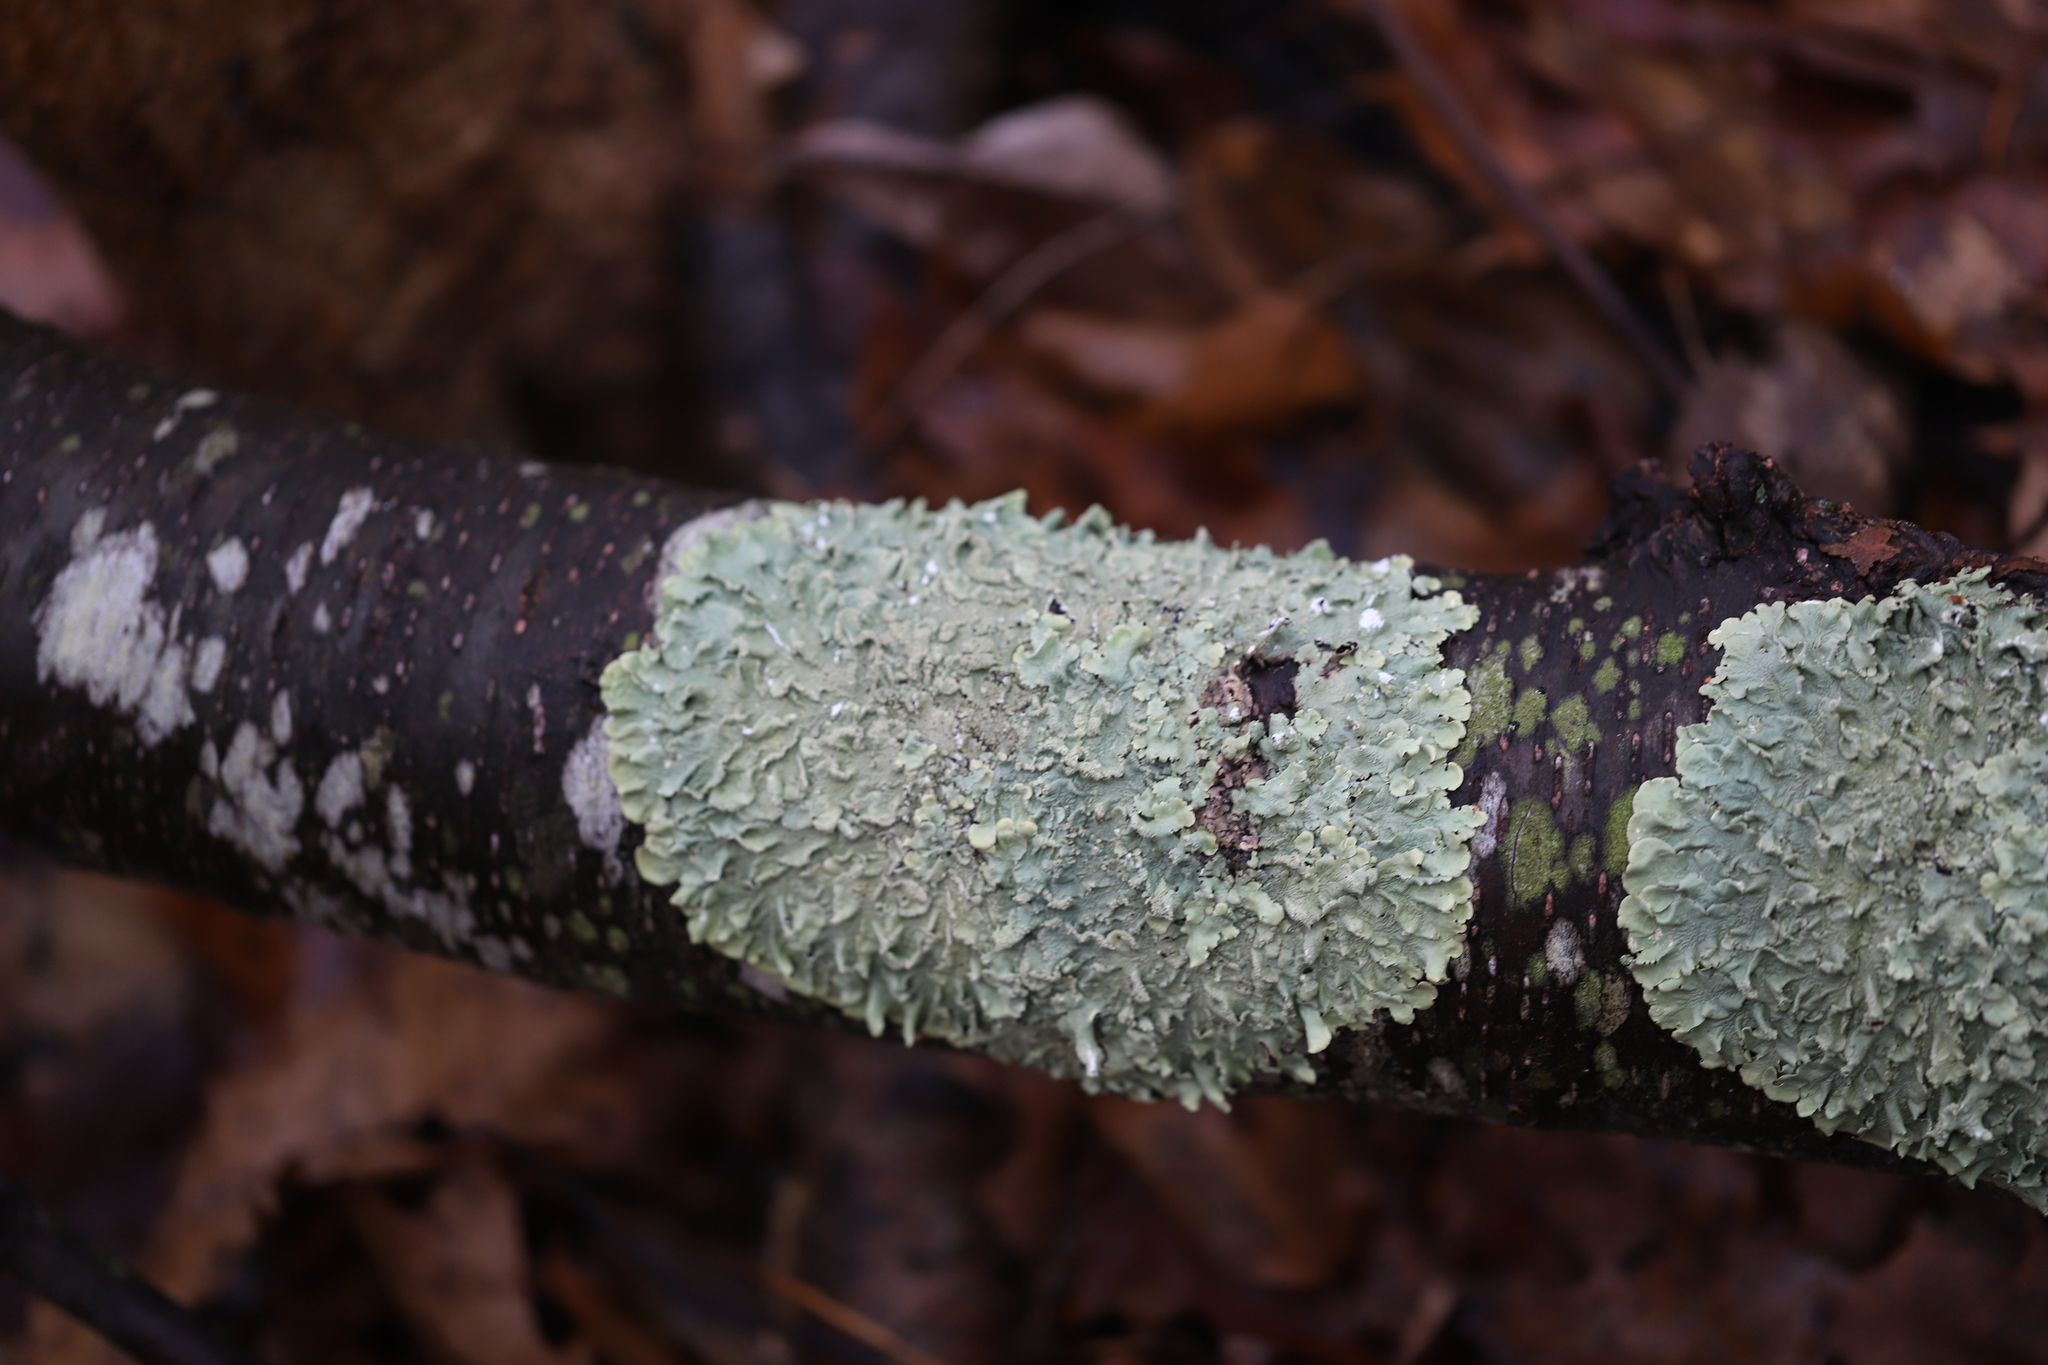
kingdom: Fungi
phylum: Ascomycota
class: Lecanoromycetes
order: Lecanorales
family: Parmeliaceae
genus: Flavoparmelia
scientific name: Flavoparmelia caperata
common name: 40-mile per hour lichen
